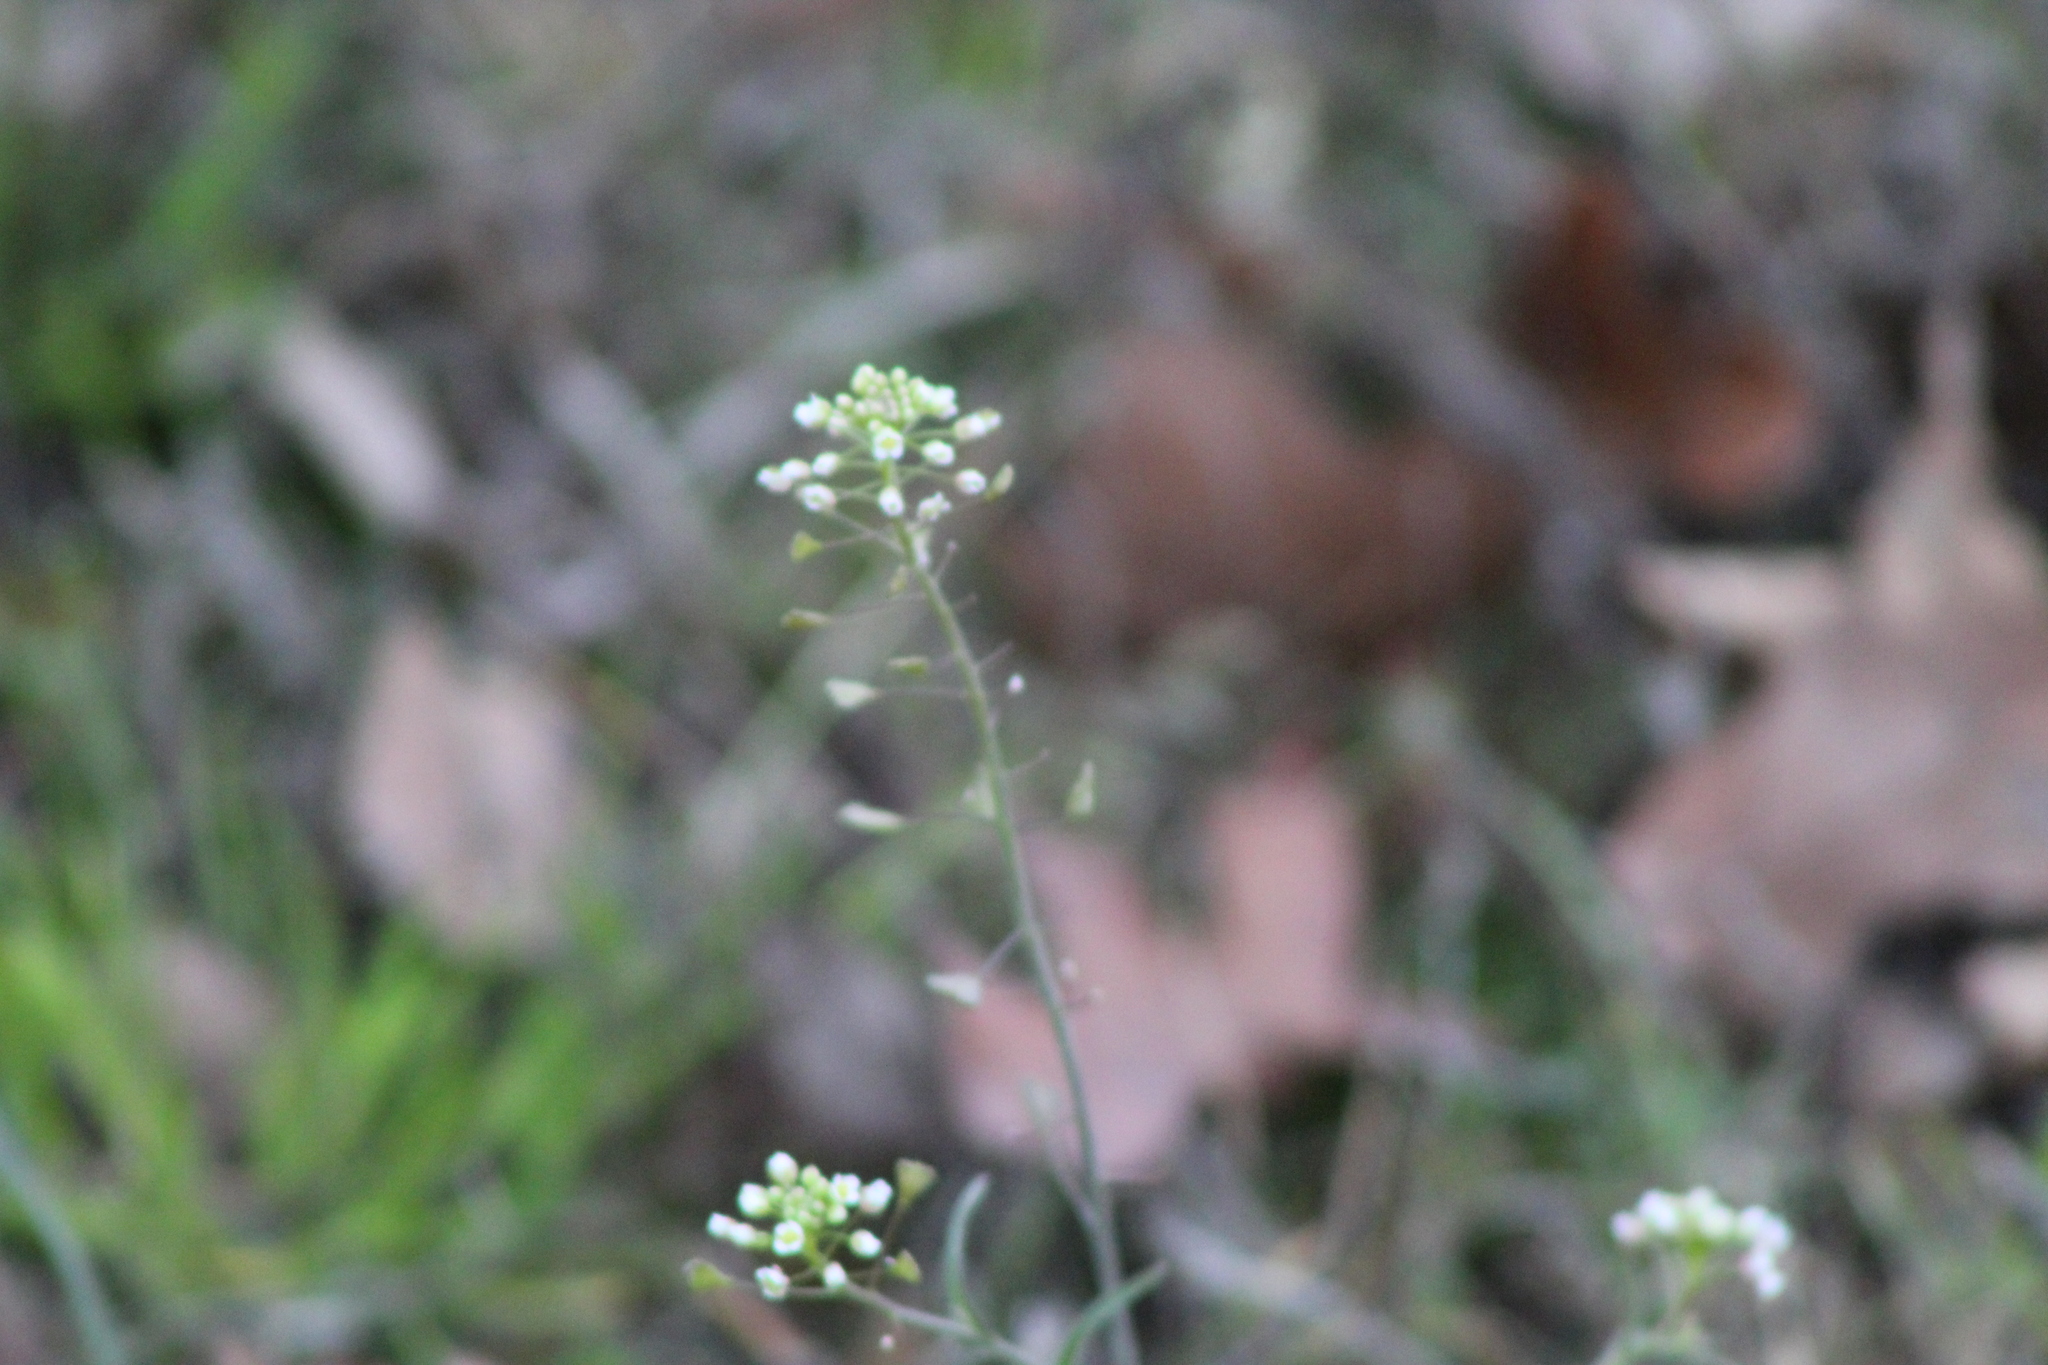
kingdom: Plantae
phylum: Tracheophyta
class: Magnoliopsida
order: Brassicales
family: Brassicaceae
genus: Capsella
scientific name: Capsella bursa-pastoris
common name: Shepherd's purse
